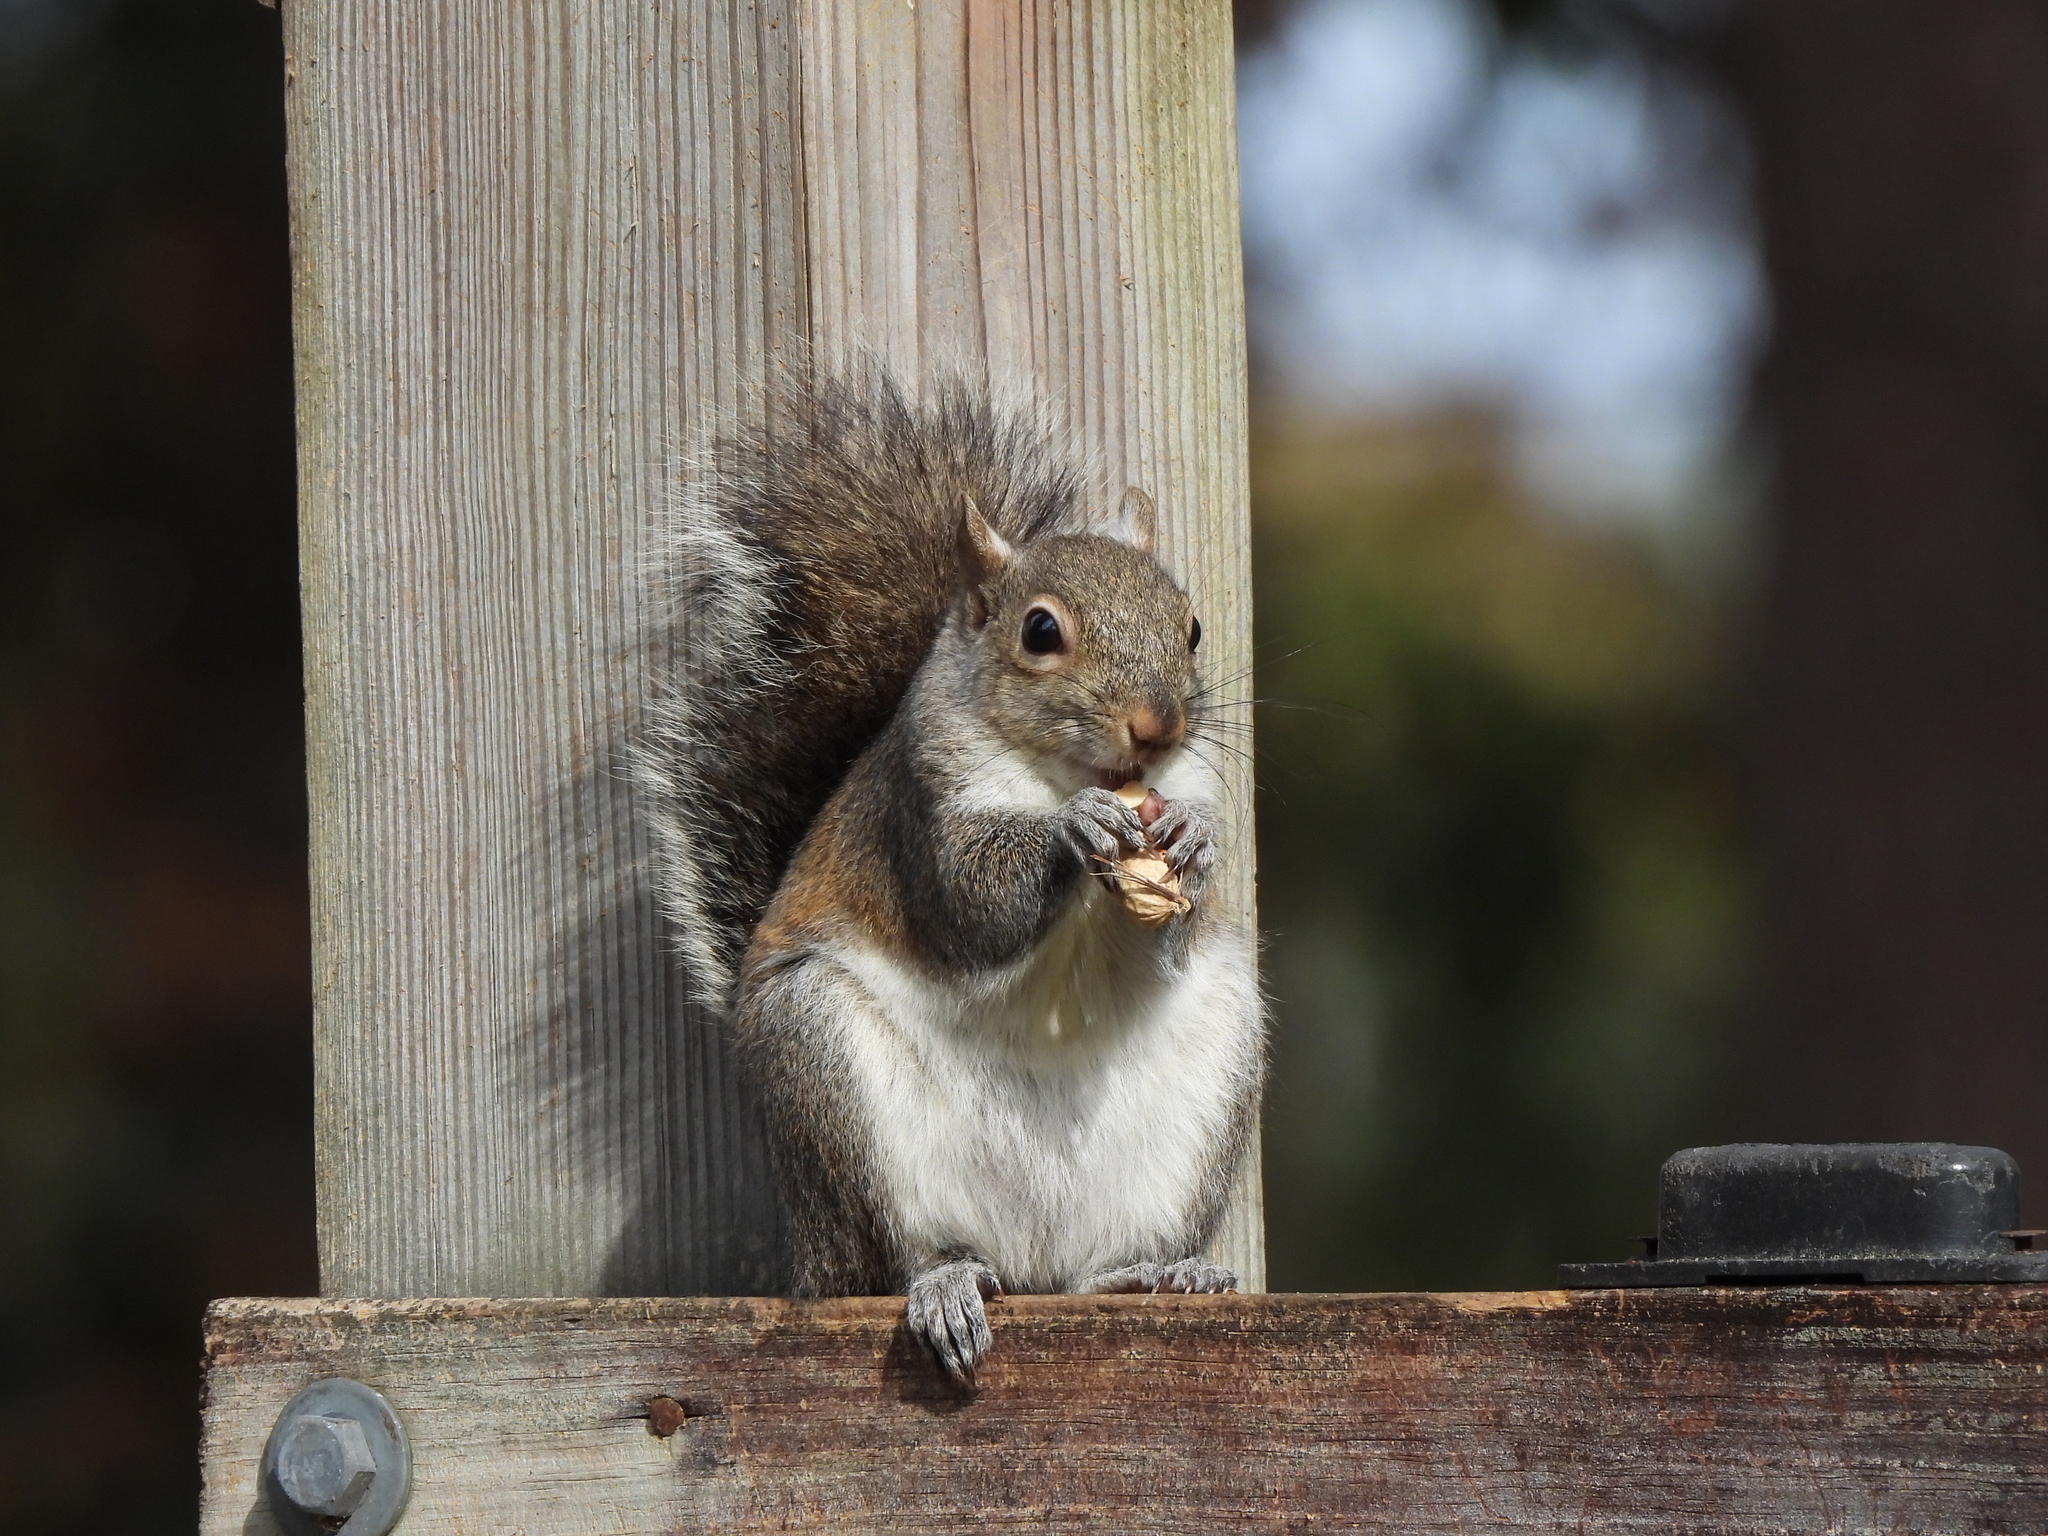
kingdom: Animalia
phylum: Chordata
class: Mammalia
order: Rodentia
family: Sciuridae
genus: Sciurus
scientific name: Sciurus carolinensis
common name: Eastern gray squirrel
